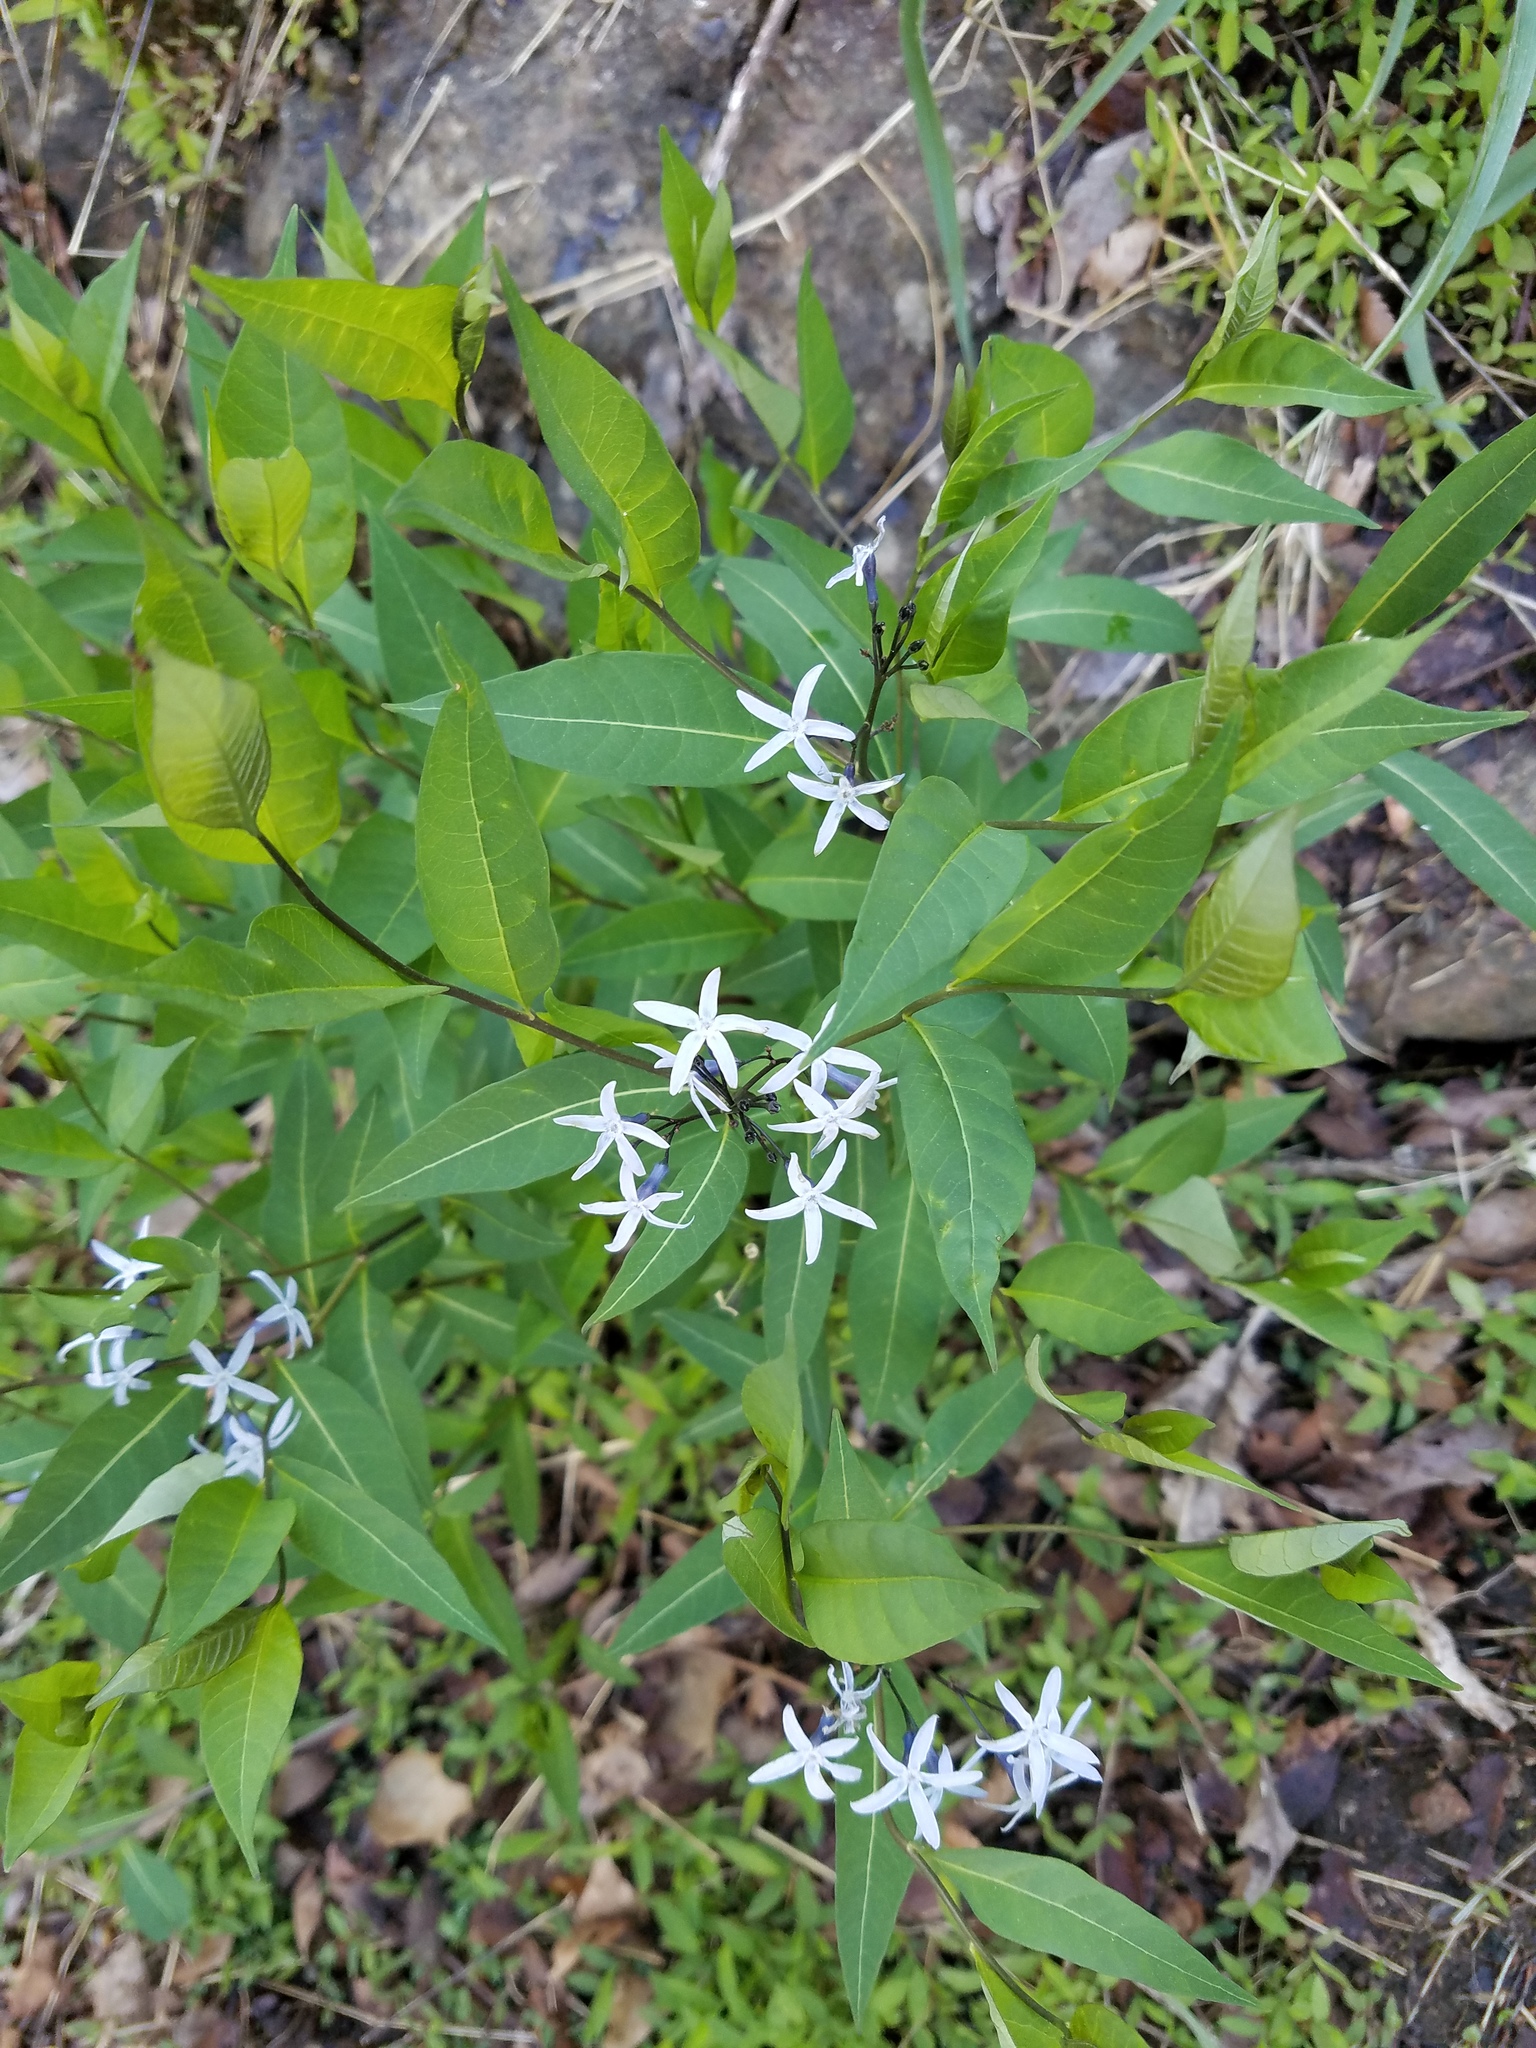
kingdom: Plantae
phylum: Tracheophyta
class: Magnoliopsida
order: Gentianales
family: Apocynaceae
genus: Amsonia
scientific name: Amsonia tabernaemontana
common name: Texas-star
